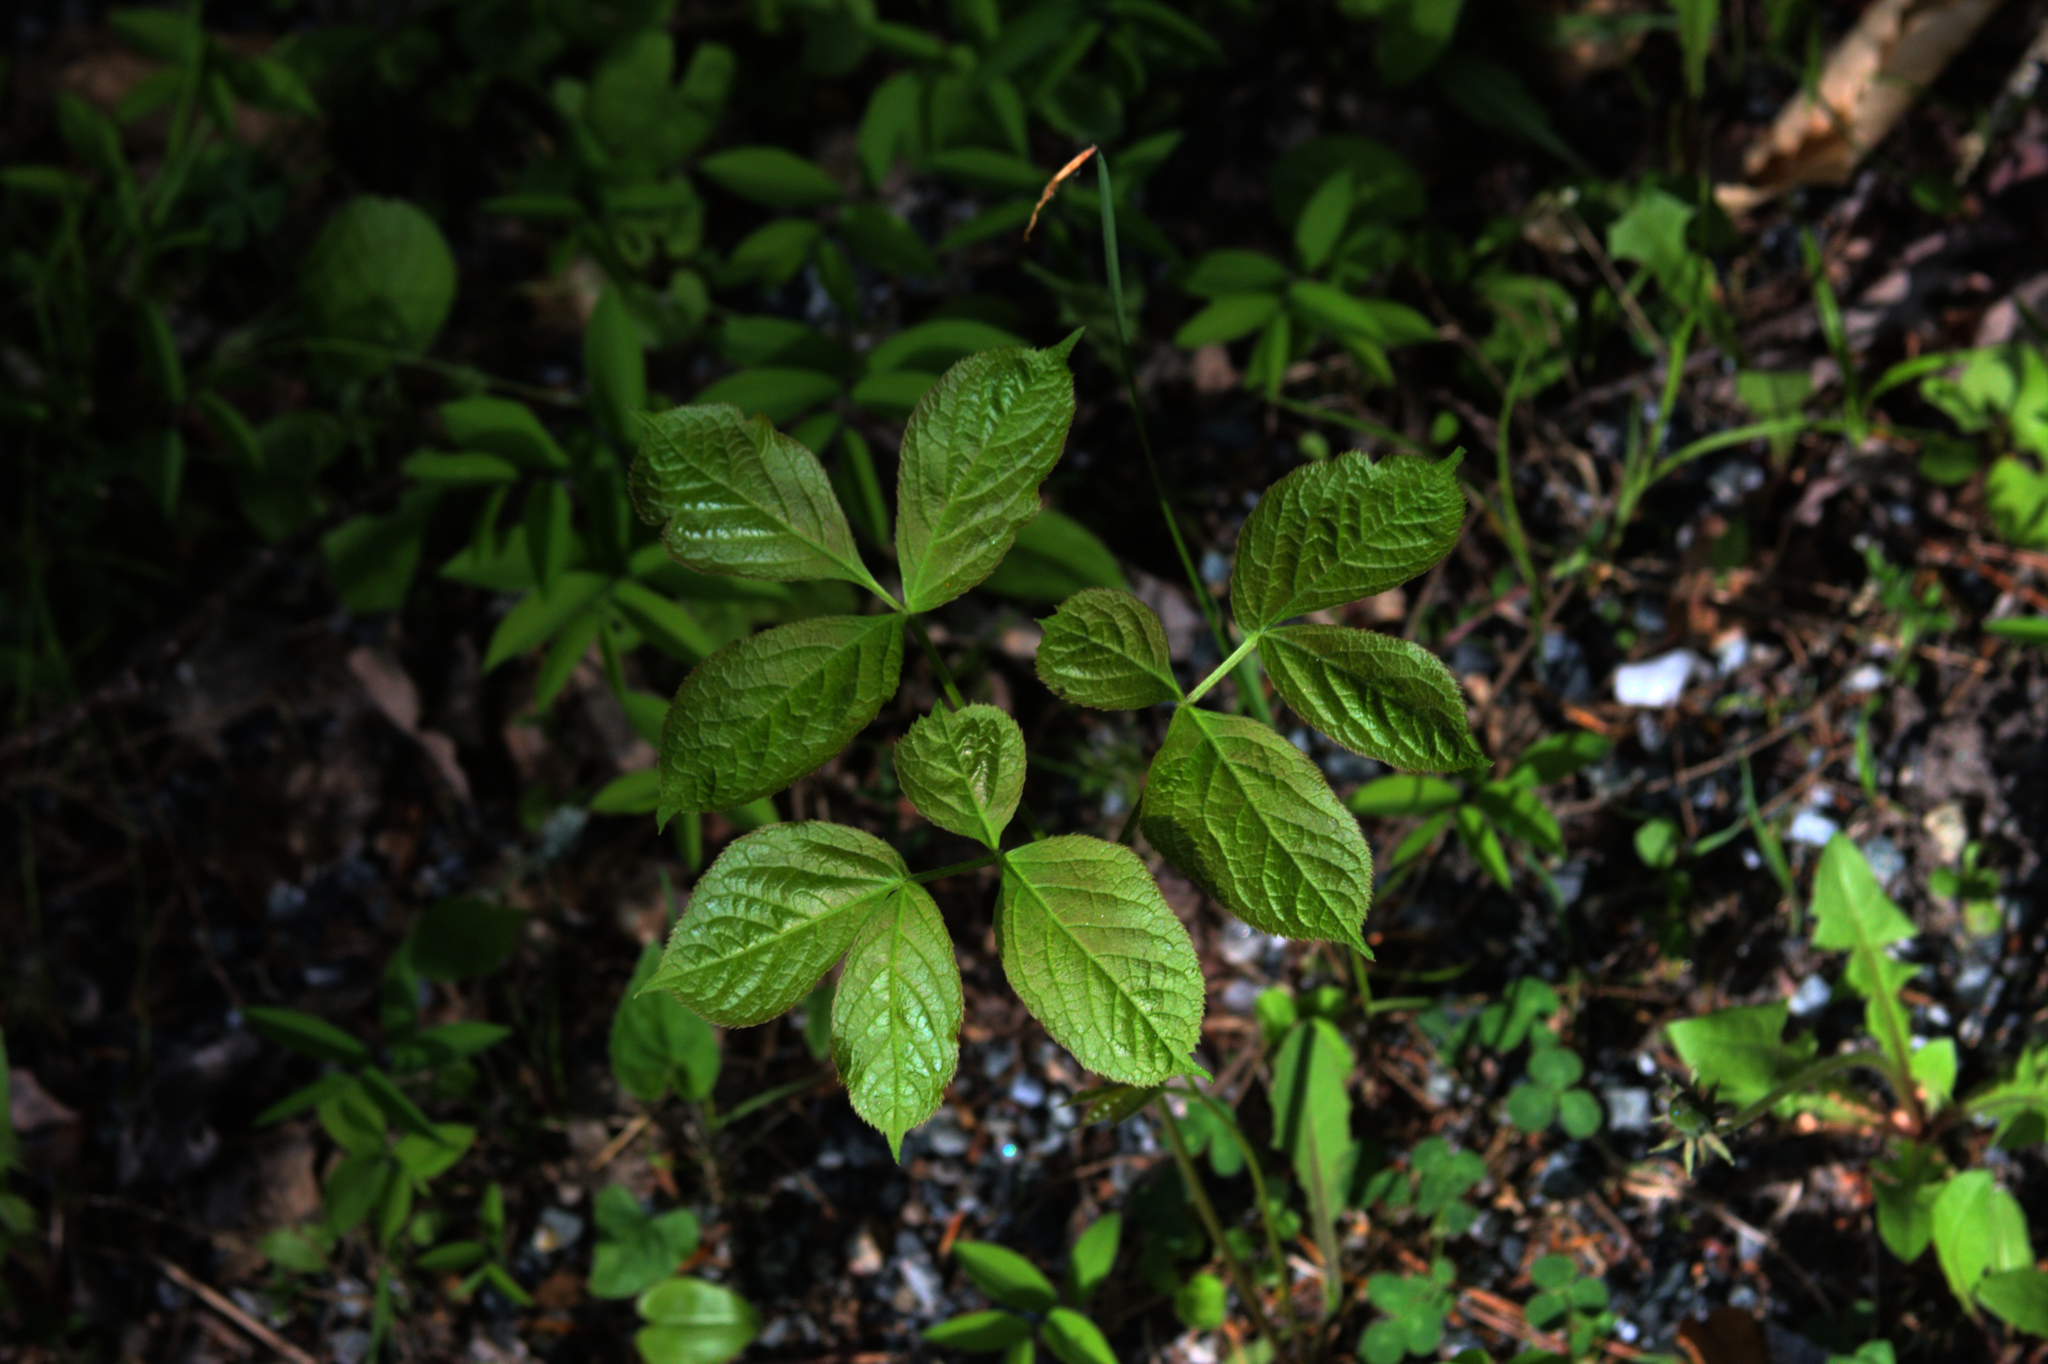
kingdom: Plantae
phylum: Tracheophyta
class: Magnoliopsida
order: Apiales
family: Araliaceae
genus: Aralia
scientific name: Aralia nudicaulis
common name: Wild sarsaparilla
